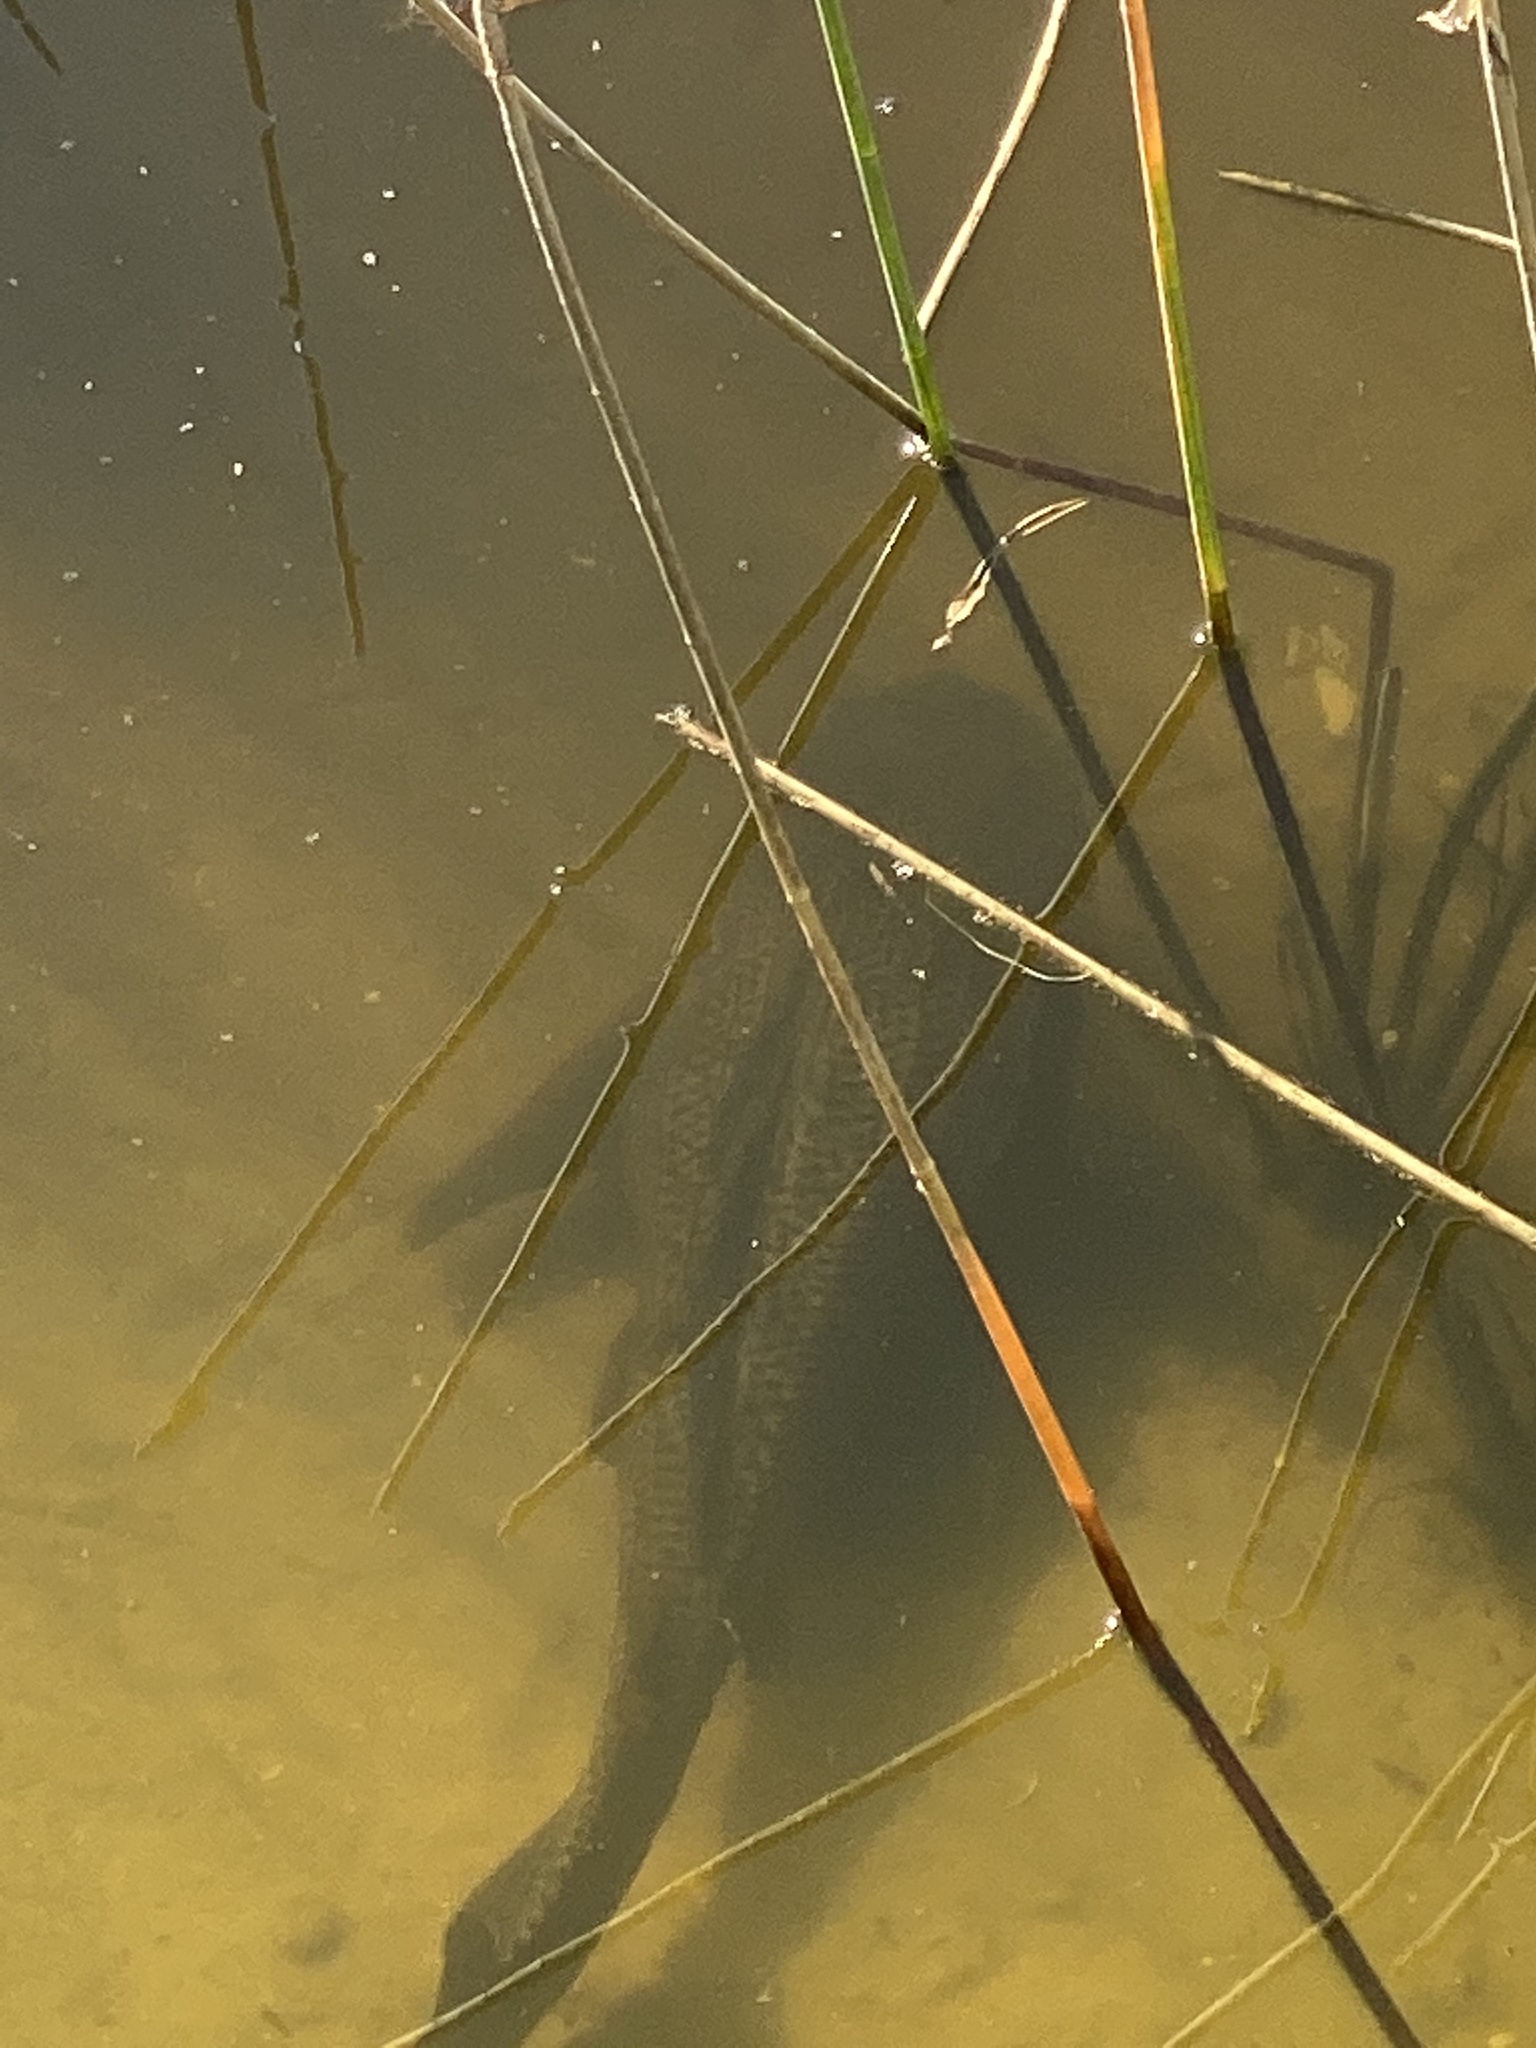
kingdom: Animalia
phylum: Chordata
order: Siluriformes
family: Loricariidae
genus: Pterygoplichthys
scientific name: Pterygoplichthys
